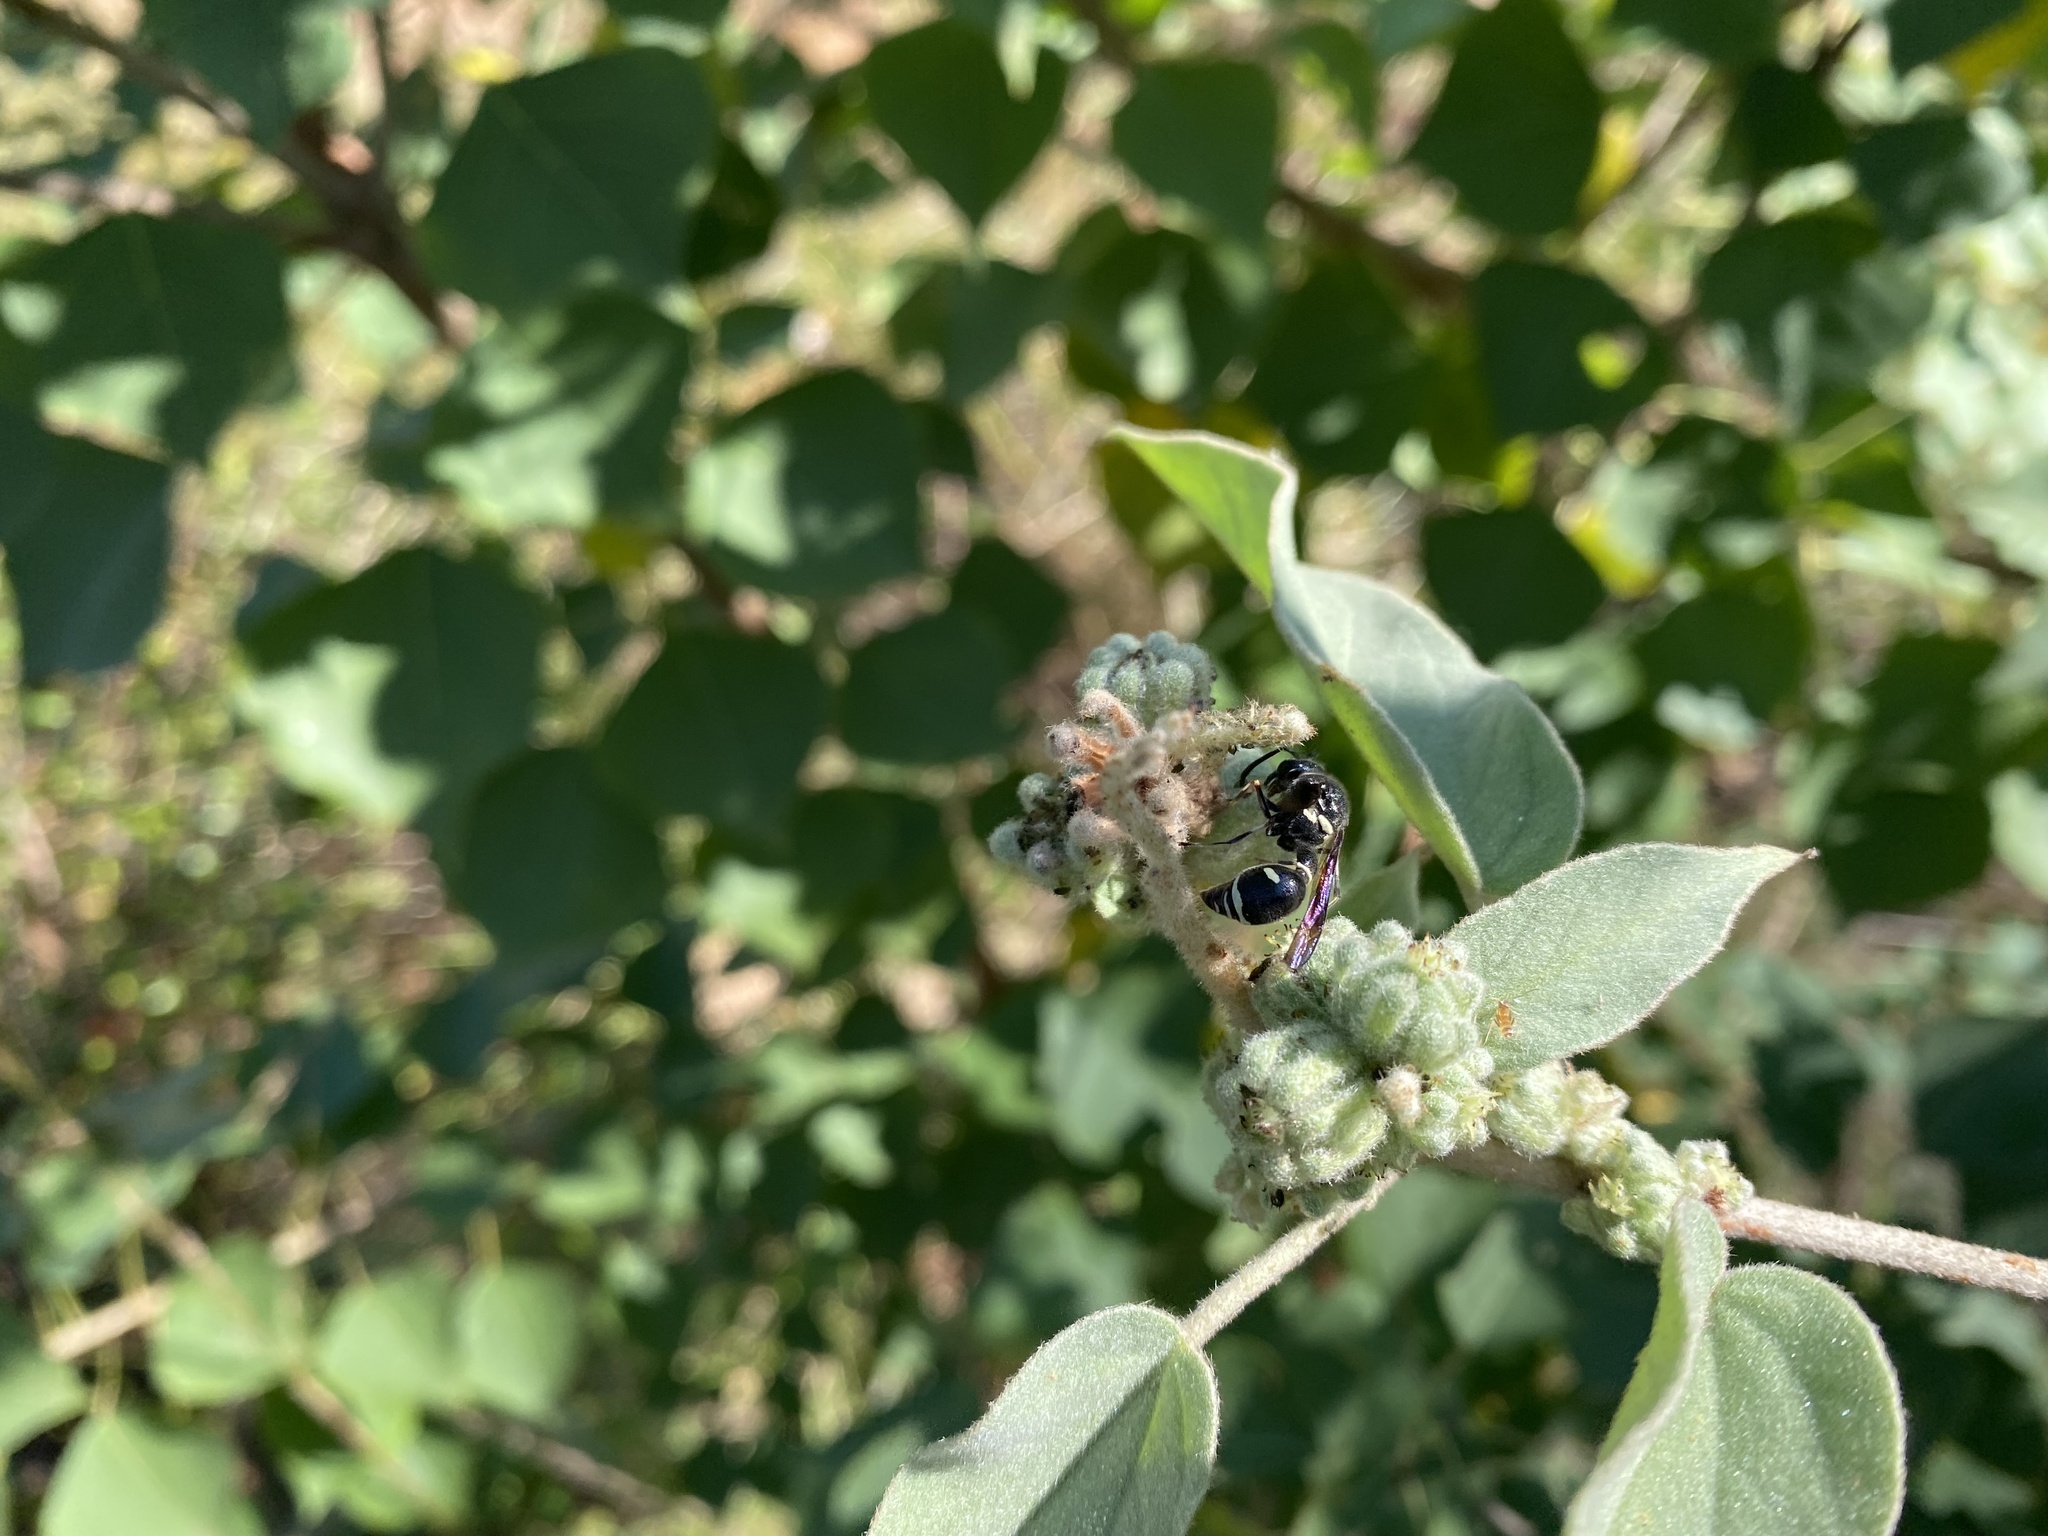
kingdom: Animalia
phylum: Arthropoda
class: Insecta
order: Hymenoptera
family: Vespidae
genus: Eumenes
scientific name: Eumenes fraternus
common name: Fraternal potter wasp
